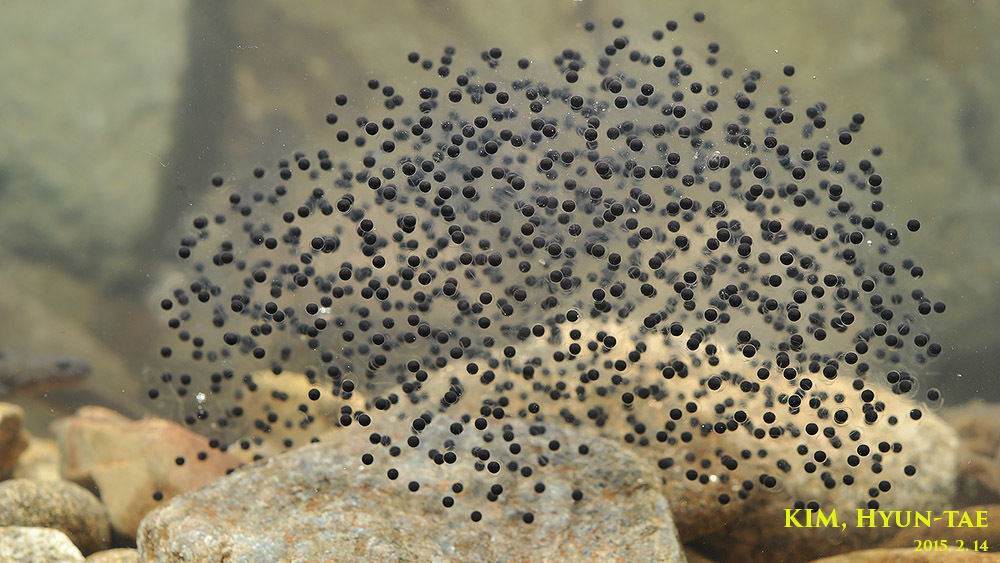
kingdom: Animalia
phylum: Chordata
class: Amphibia
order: Anura
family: Ranidae
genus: Rana
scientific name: Rana uenoi
